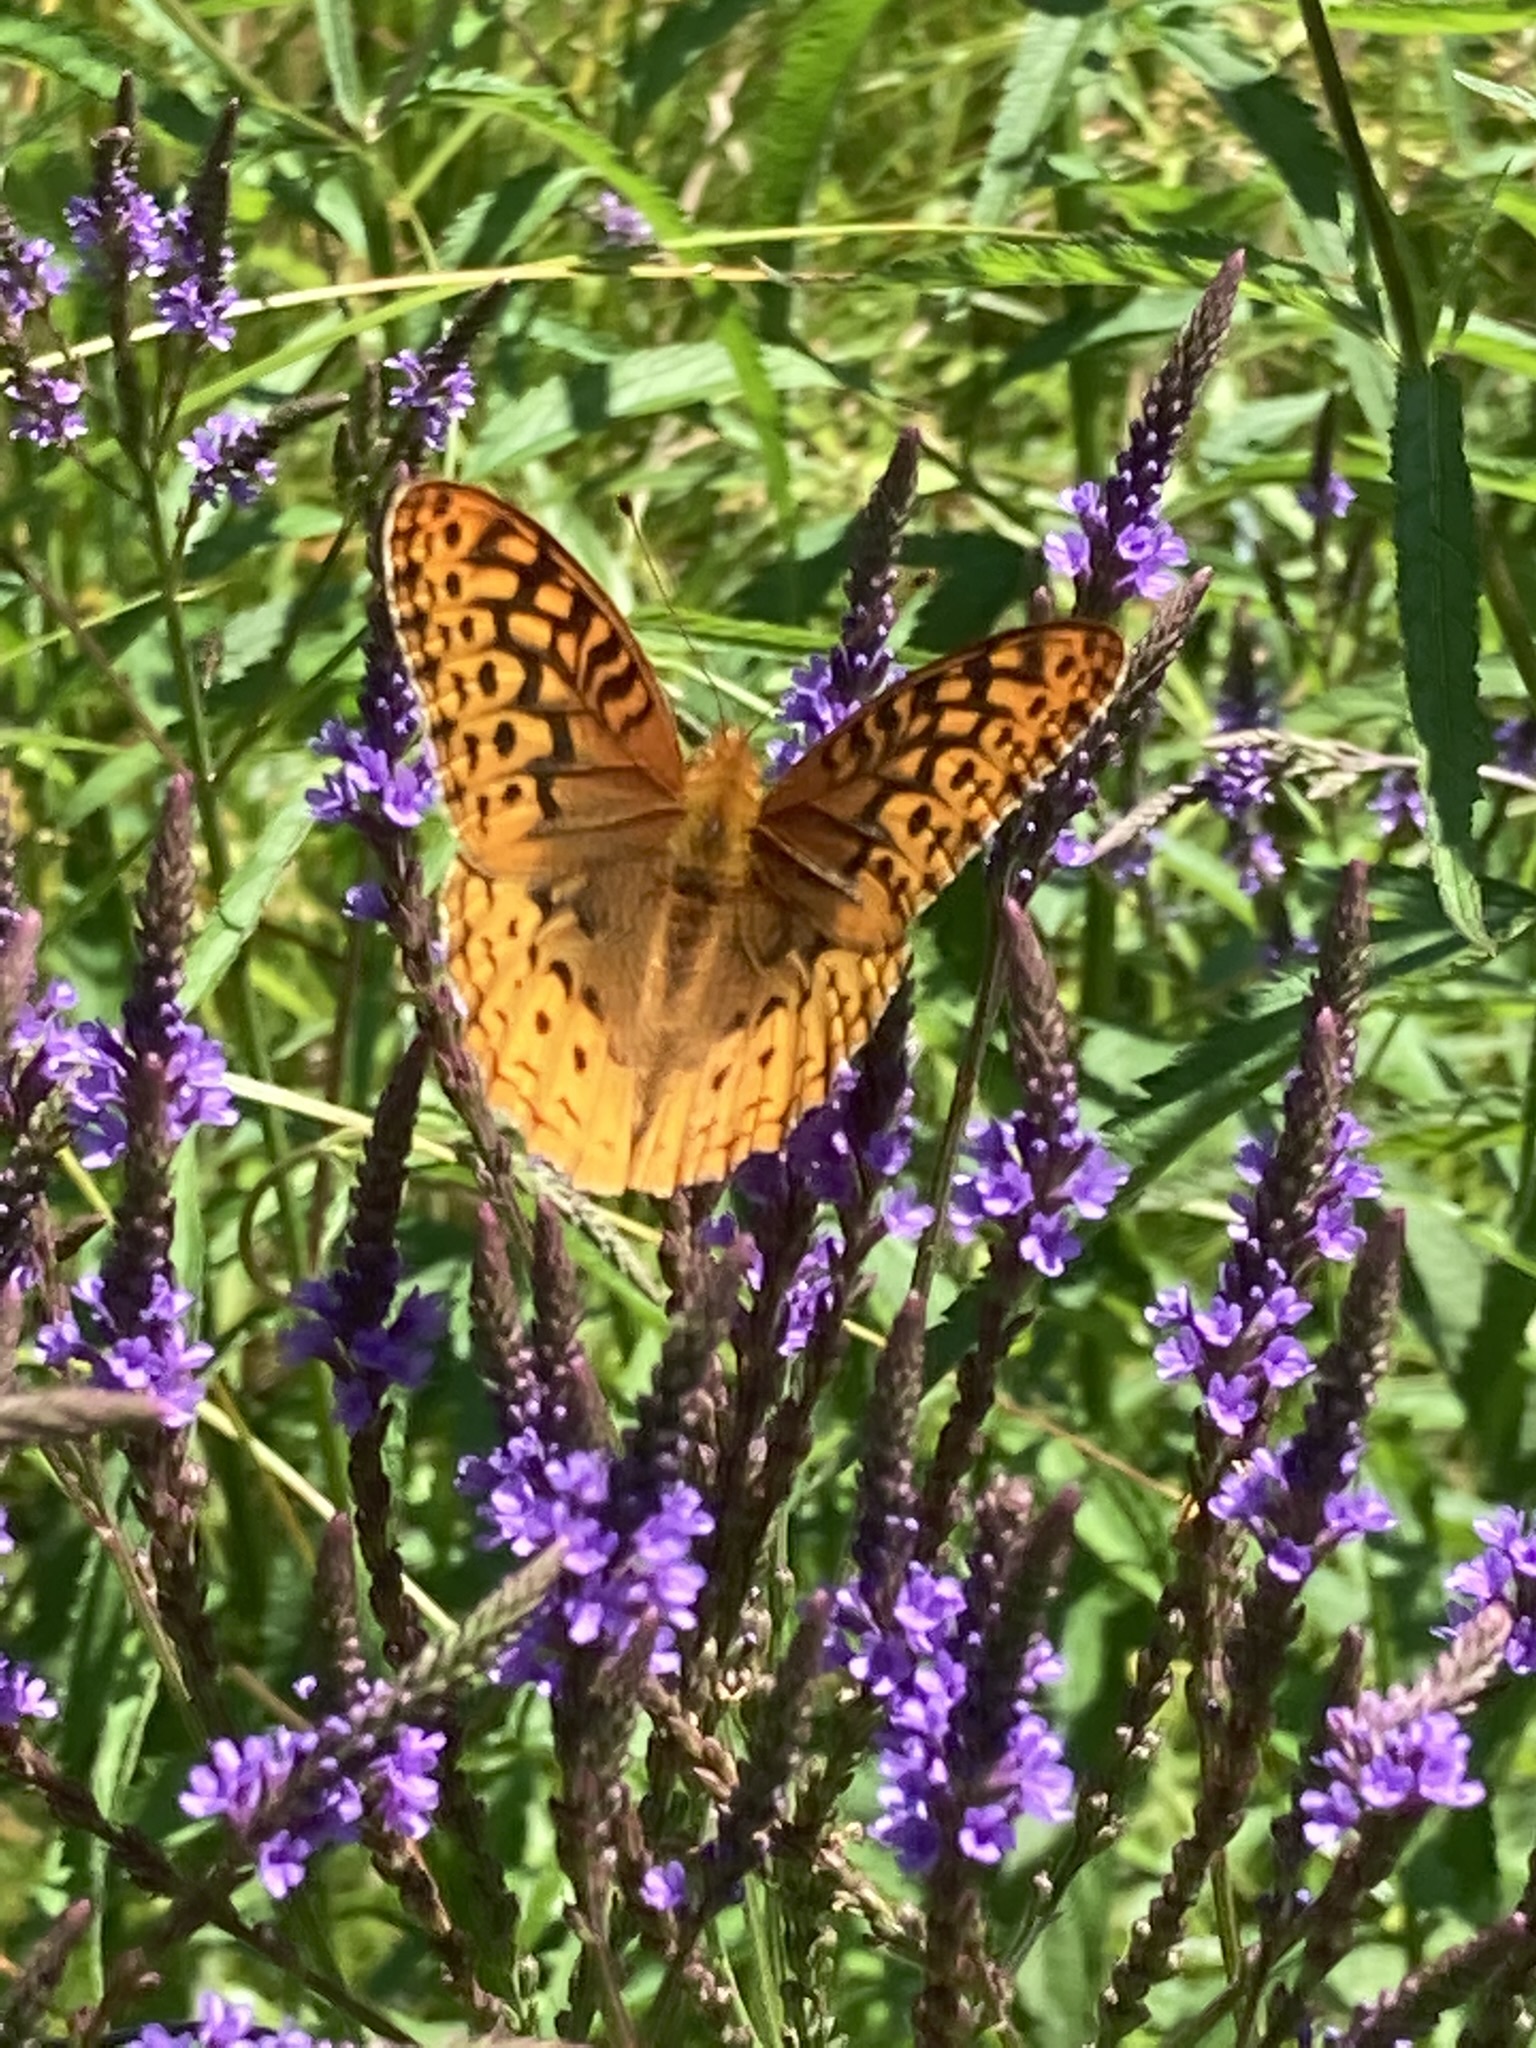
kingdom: Animalia
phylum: Arthropoda
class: Insecta
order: Lepidoptera
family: Nymphalidae
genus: Speyeria
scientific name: Speyeria cybele
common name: Great spangled fritillary
